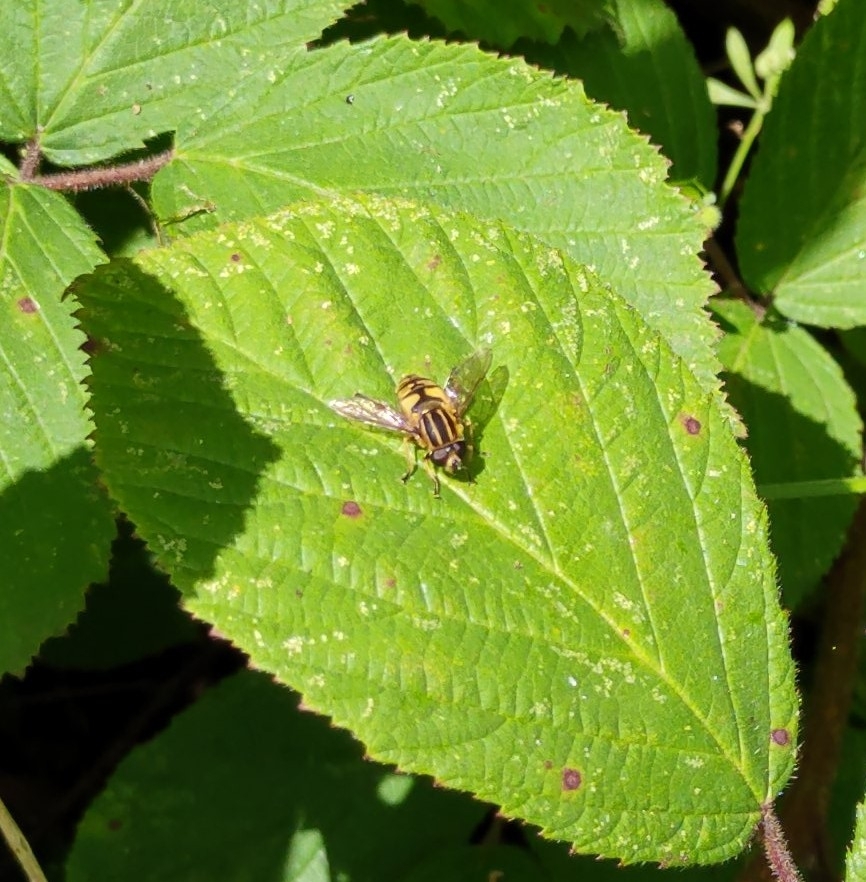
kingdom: Animalia
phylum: Arthropoda
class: Insecta
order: Diptera
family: Syrphidae
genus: Helophilus
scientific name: Helophilus pendulus
